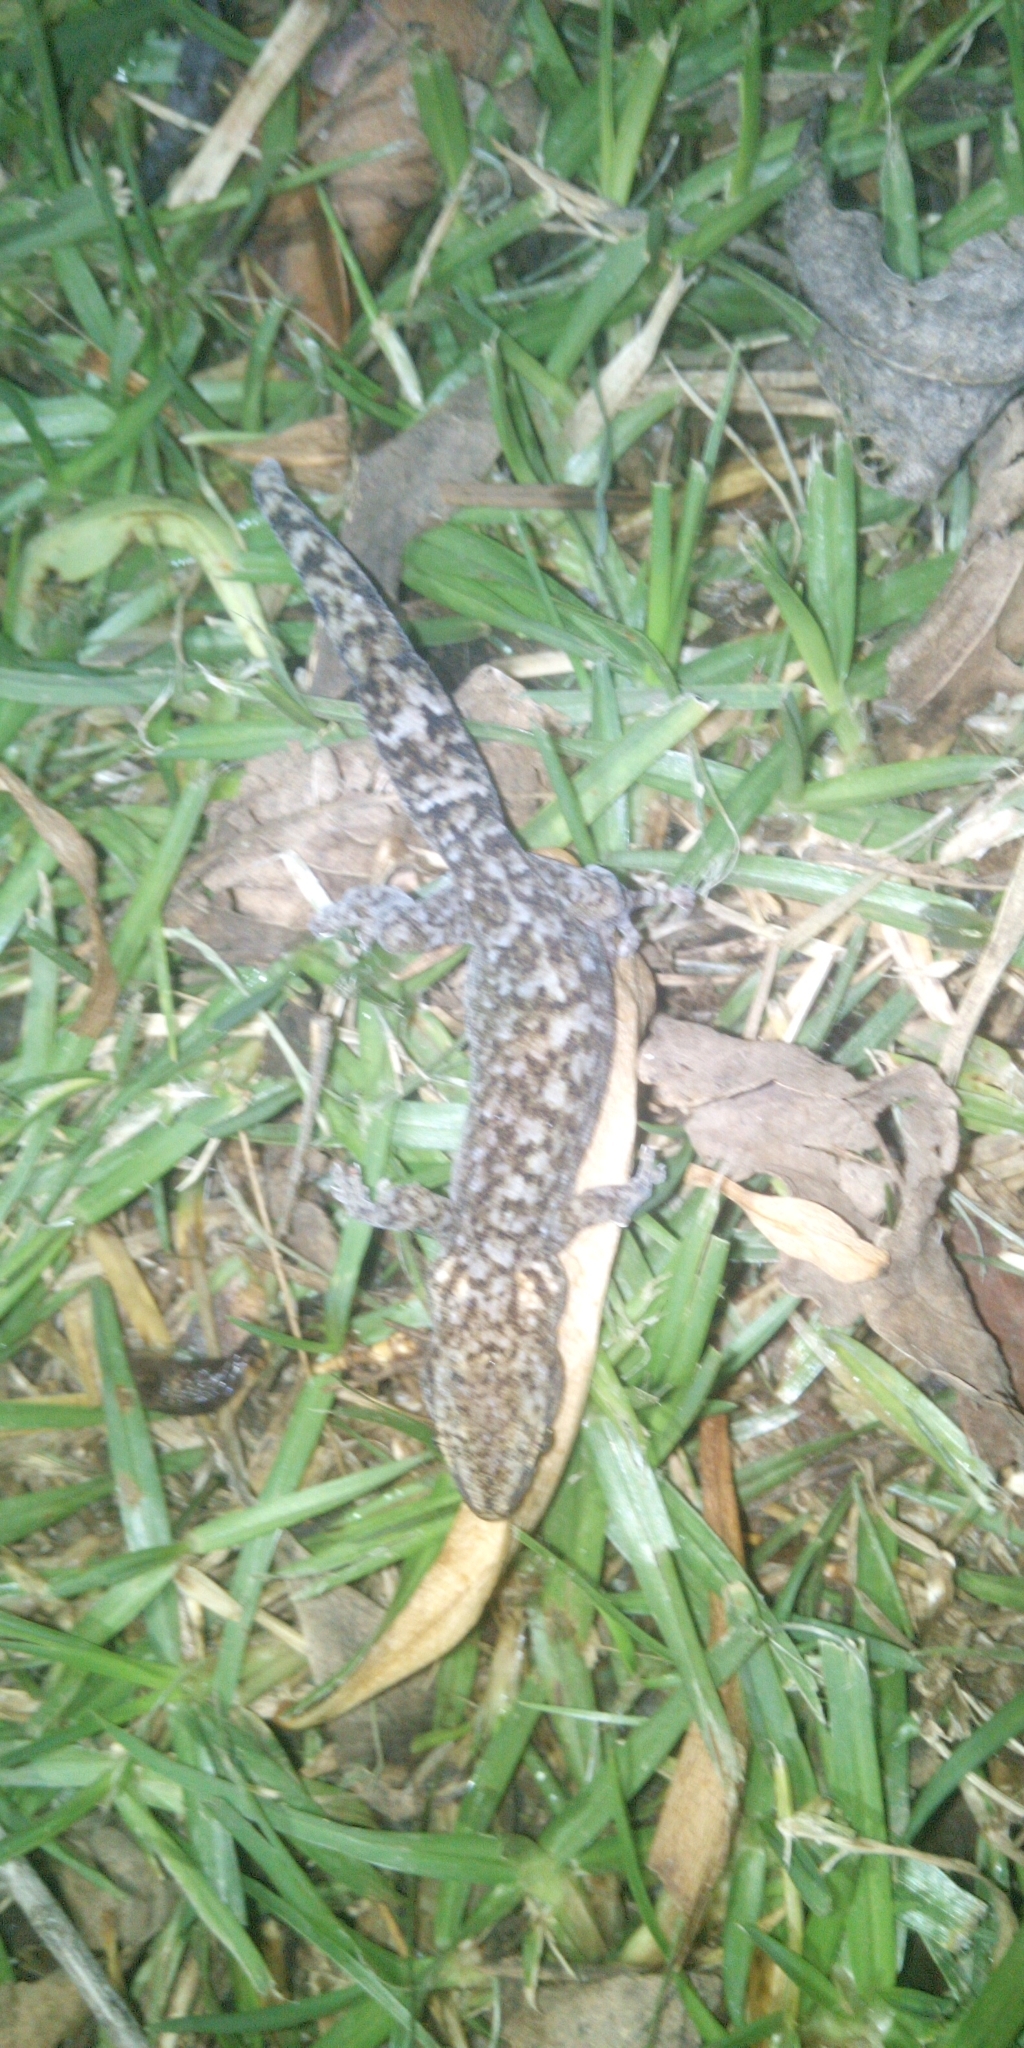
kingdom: Animalia
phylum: Chordata
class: Squamata
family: Gekkonidae
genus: Afrogecko
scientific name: Afrogecko porphyreus
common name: Marbled leaf-toed gecko
